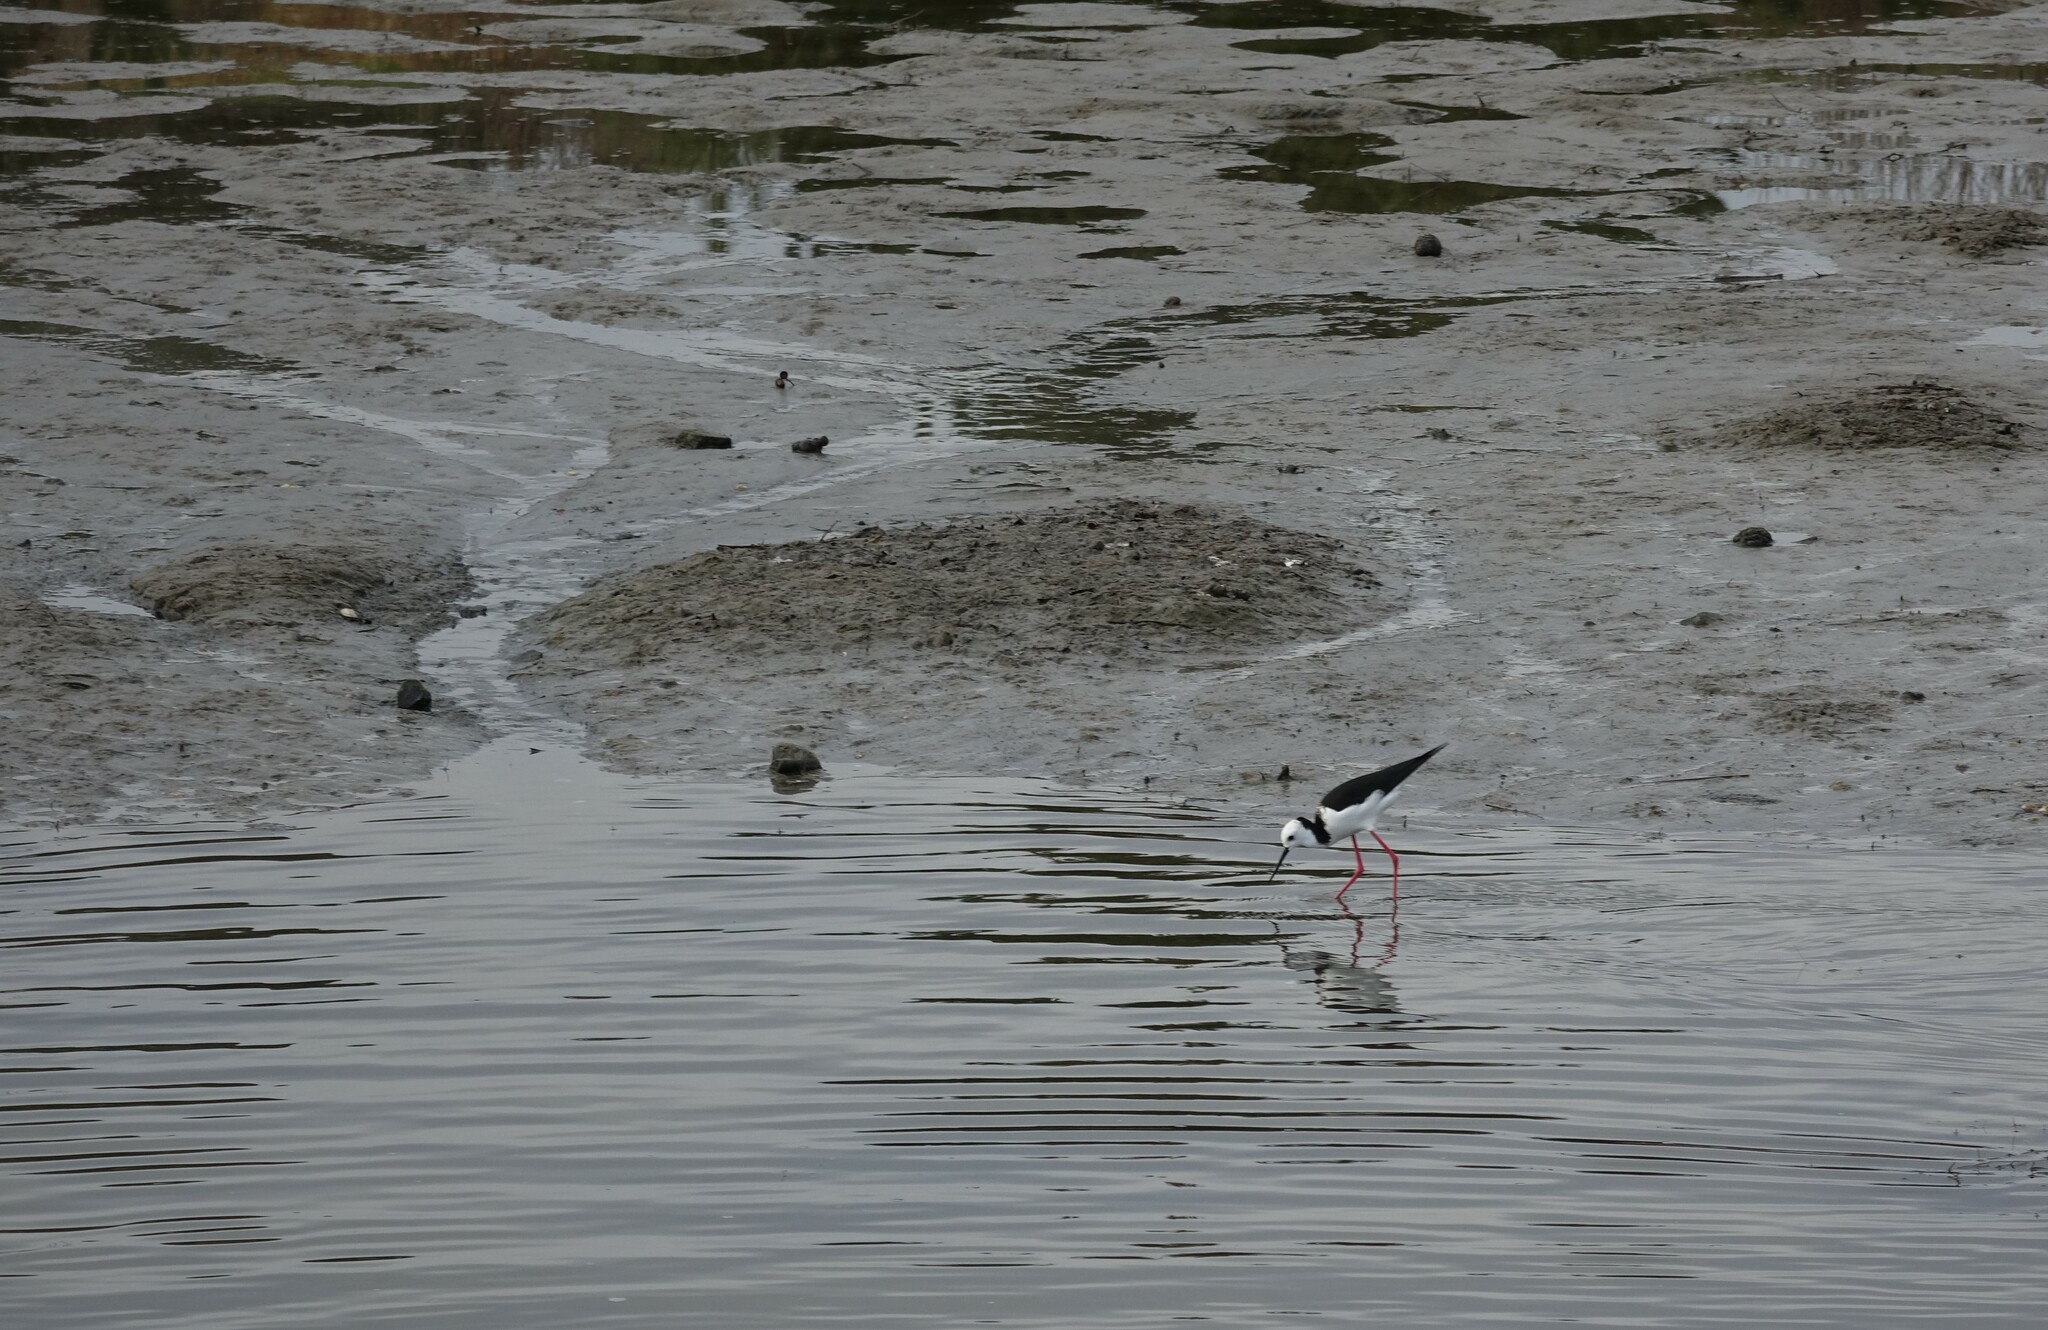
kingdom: Animalia
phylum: Chordata
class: Aves
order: Charadriiformes
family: Recurvirostridae
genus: Himantopus
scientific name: Himantopus leucocephalus
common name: White-headed stilt
